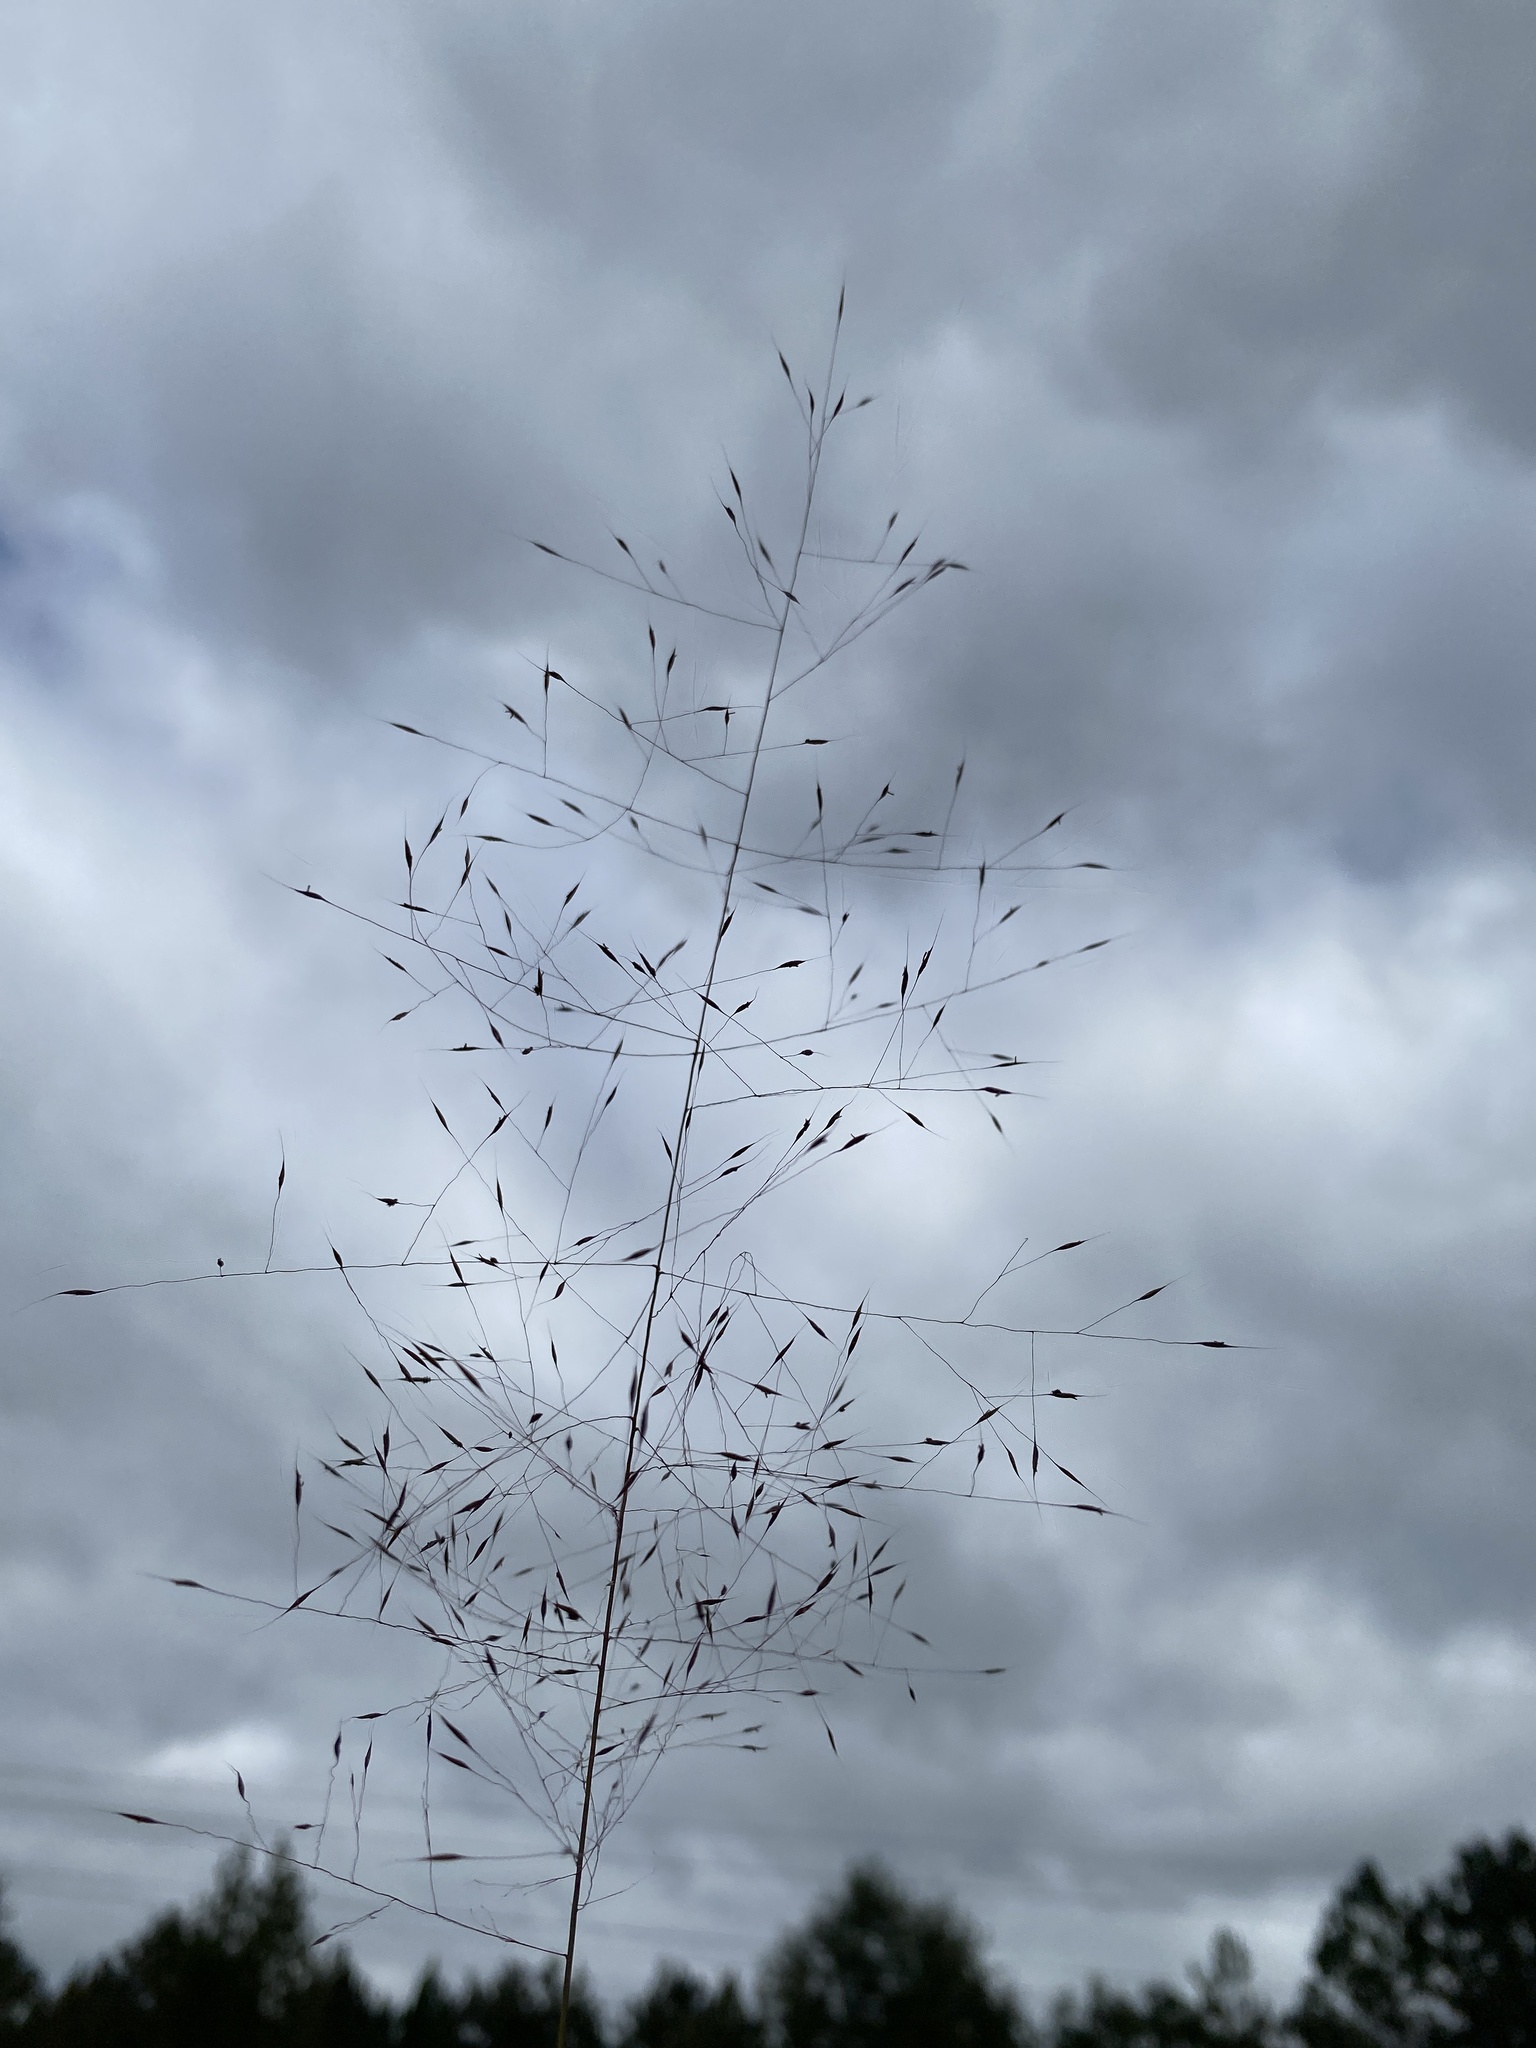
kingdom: Plantae
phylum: Tracheophyta
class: Liliopsida
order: Poales
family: Poaceae
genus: Muhlenbergia
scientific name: Muhlenbergia capillaris
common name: Purple grass
